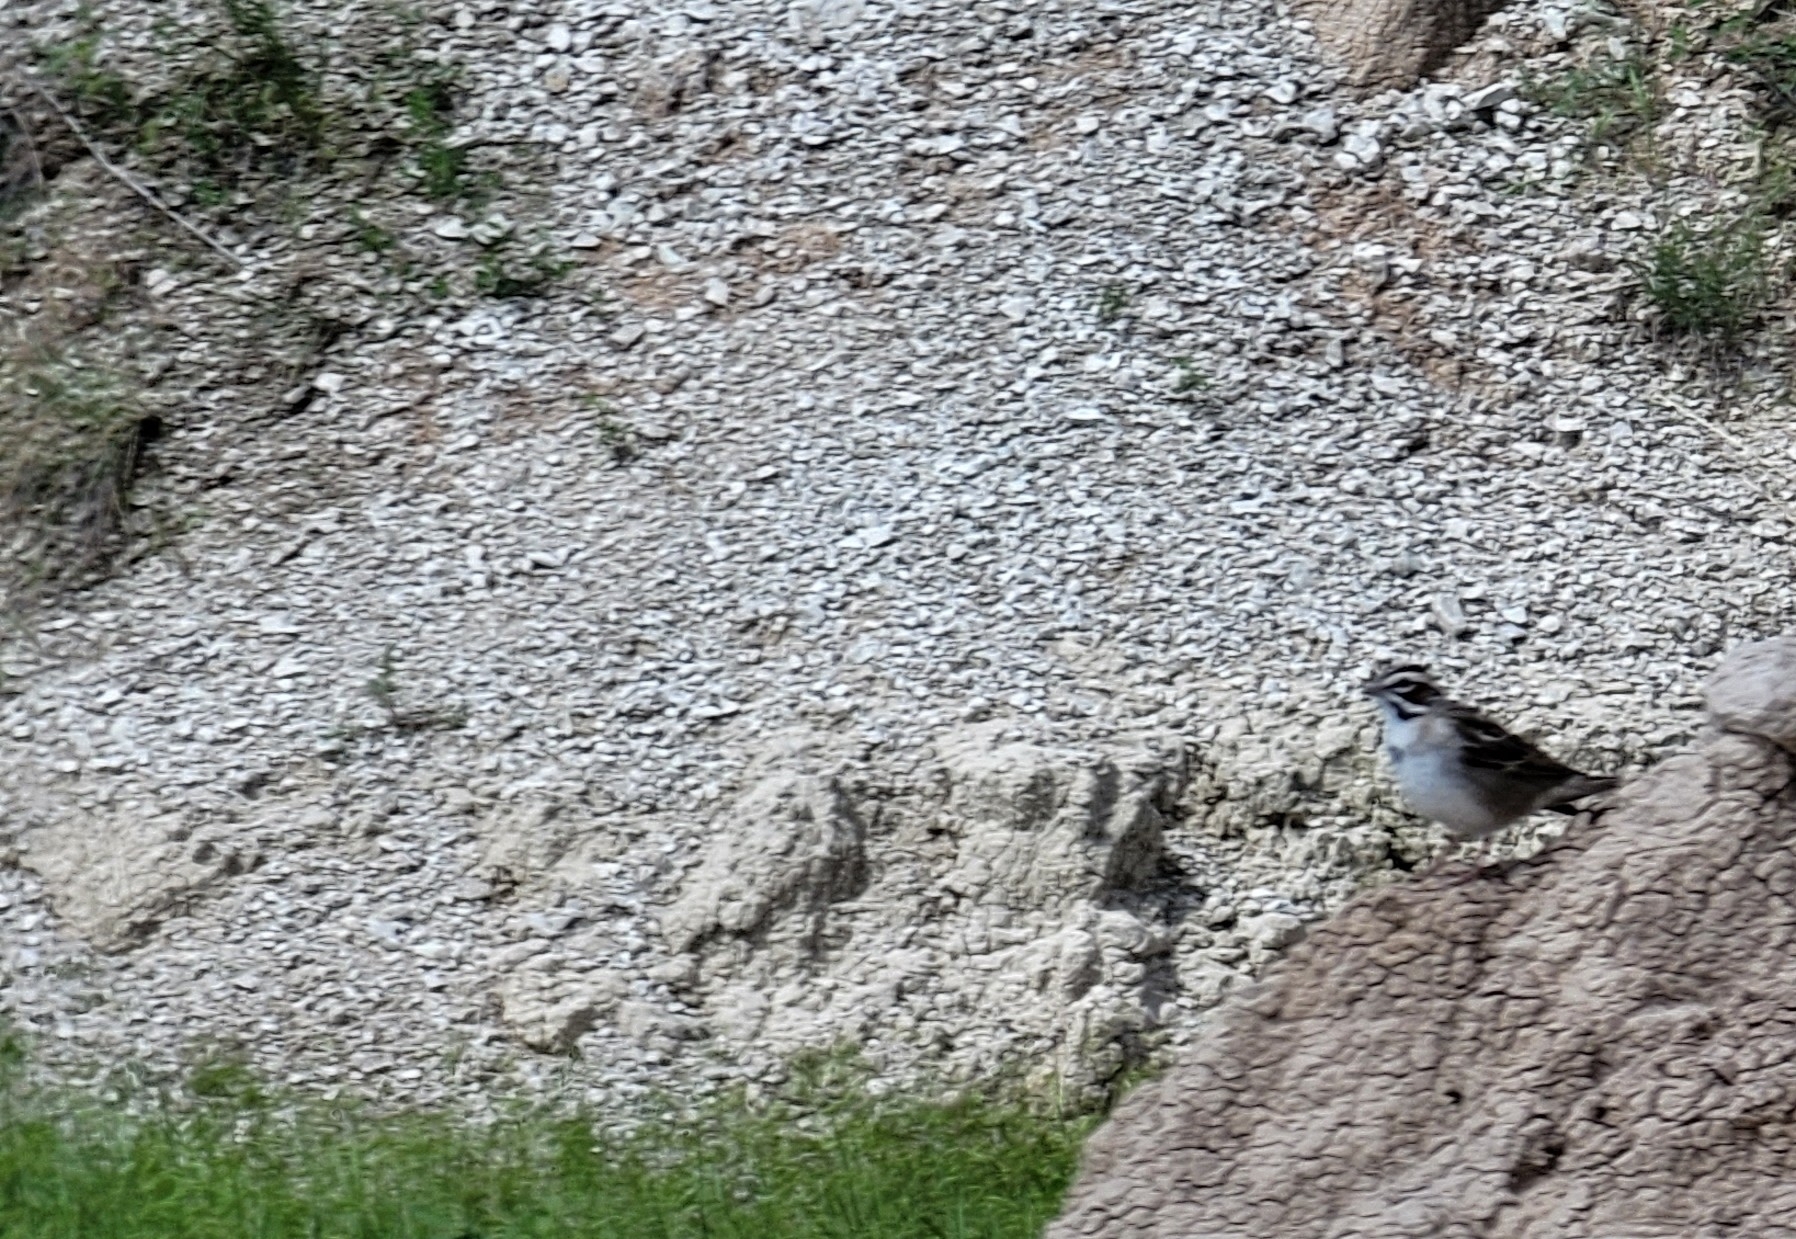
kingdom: Animalia
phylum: Chordata
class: Aves
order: Passeriformes
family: Passerellidae
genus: Chondestes
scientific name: Chondestes grammacus
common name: Lark sparrow
